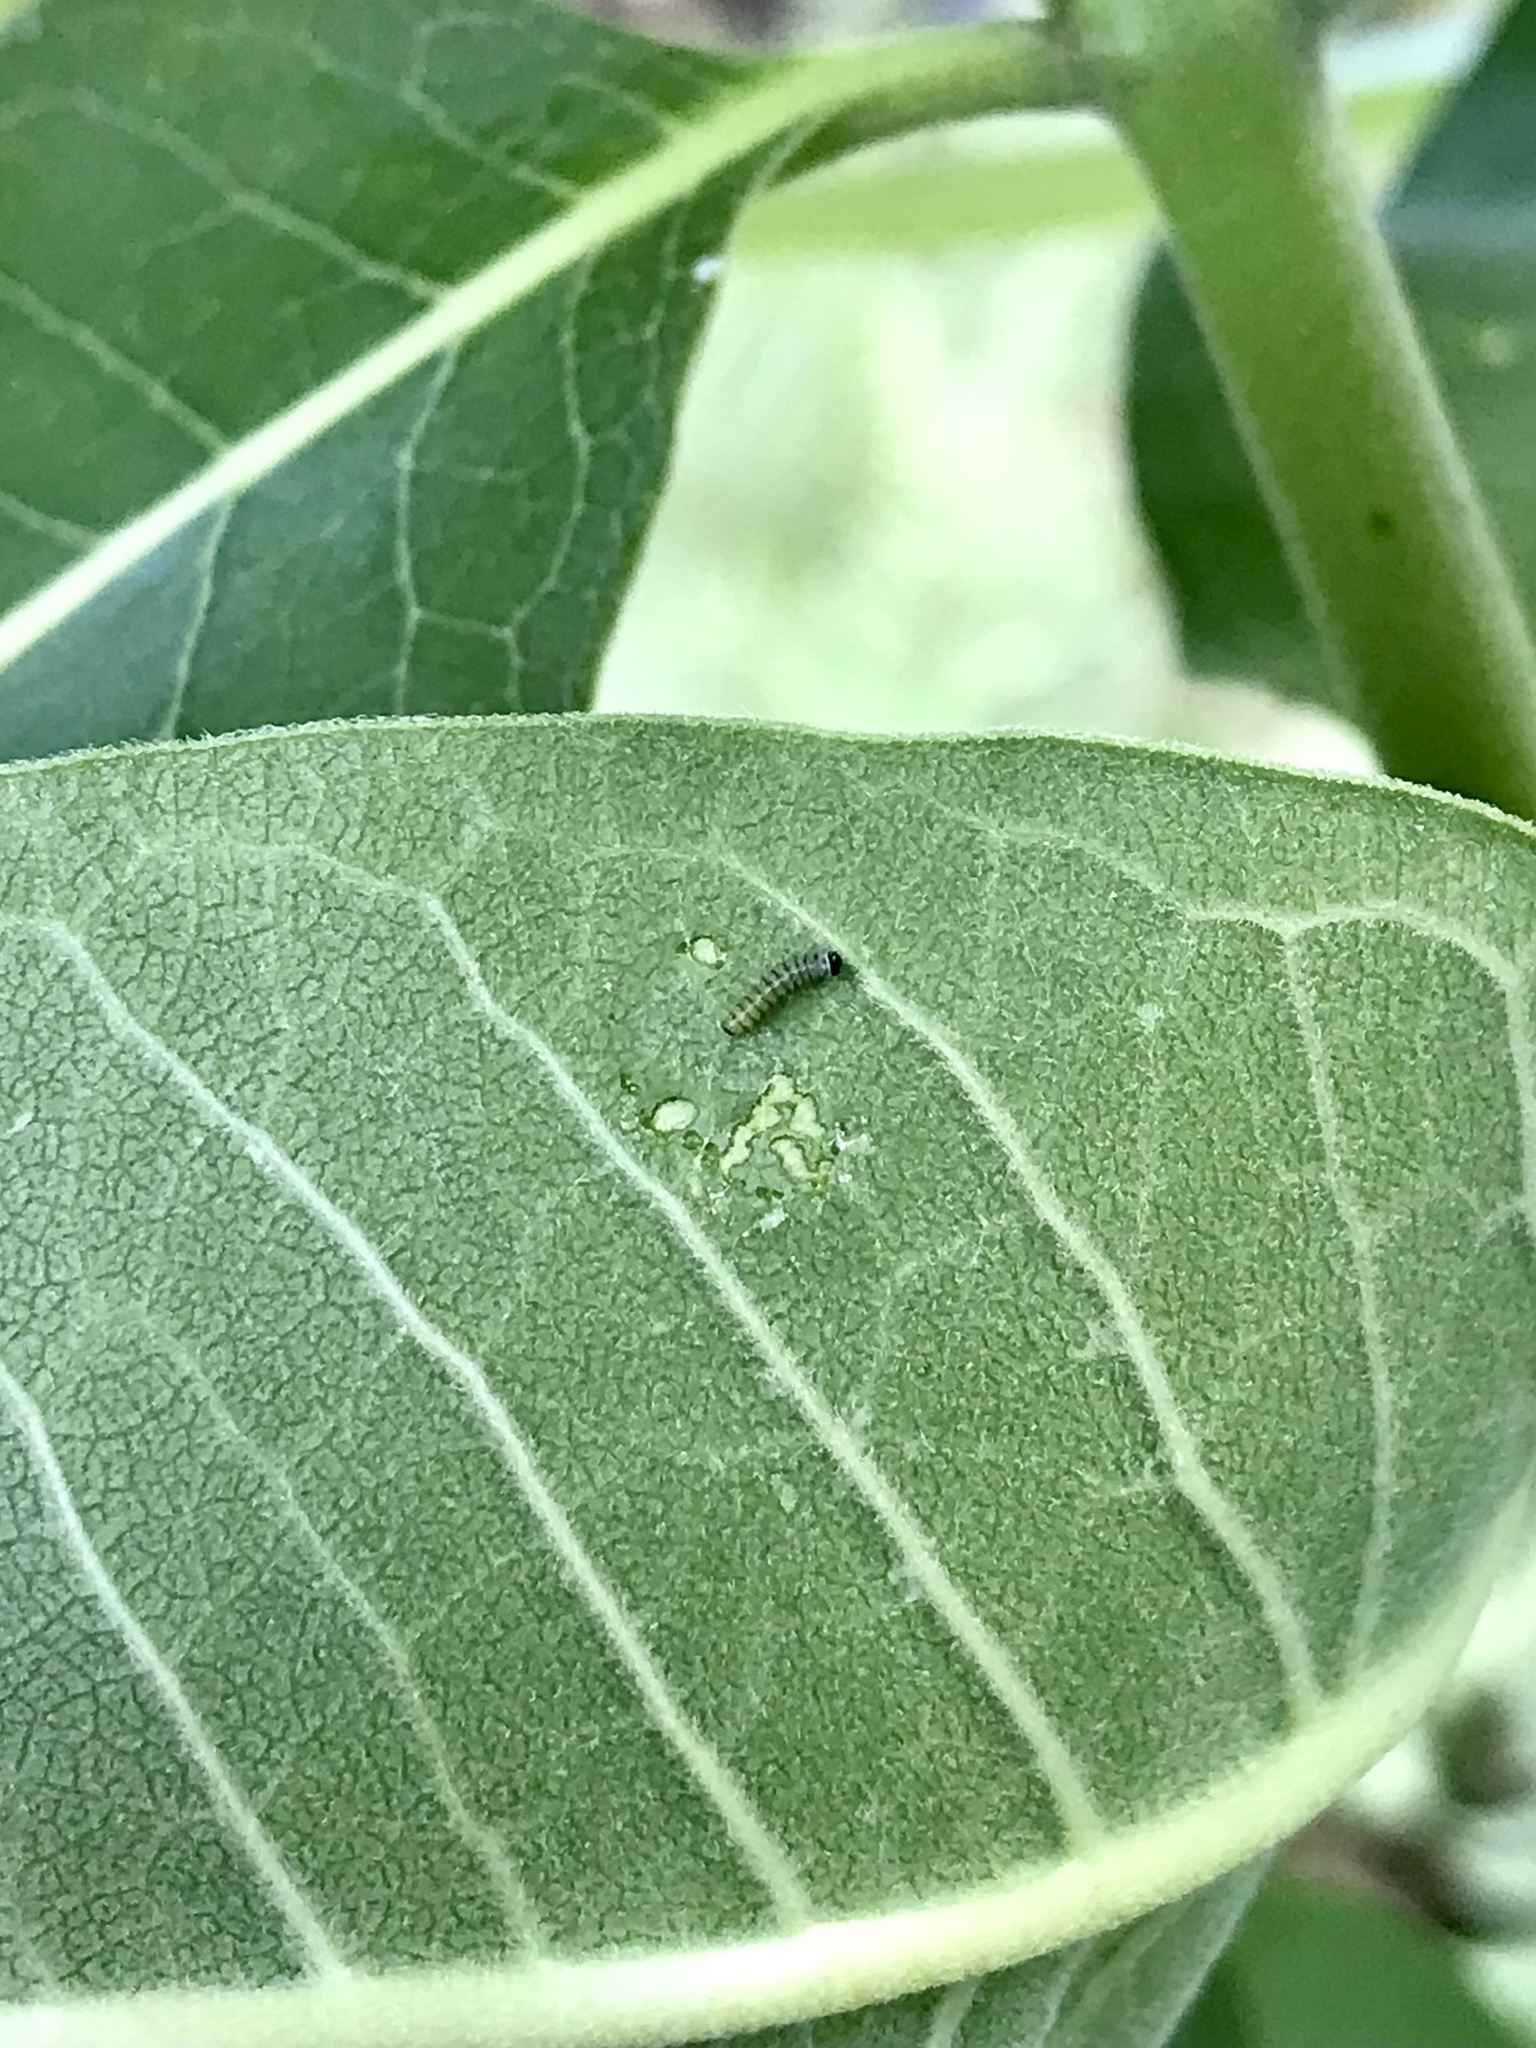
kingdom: Animalia
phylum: Arthropoda
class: Insecta
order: Lepidoptera
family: Nymphalidae
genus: Danaus
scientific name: Danaus plexippus
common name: Monarch
